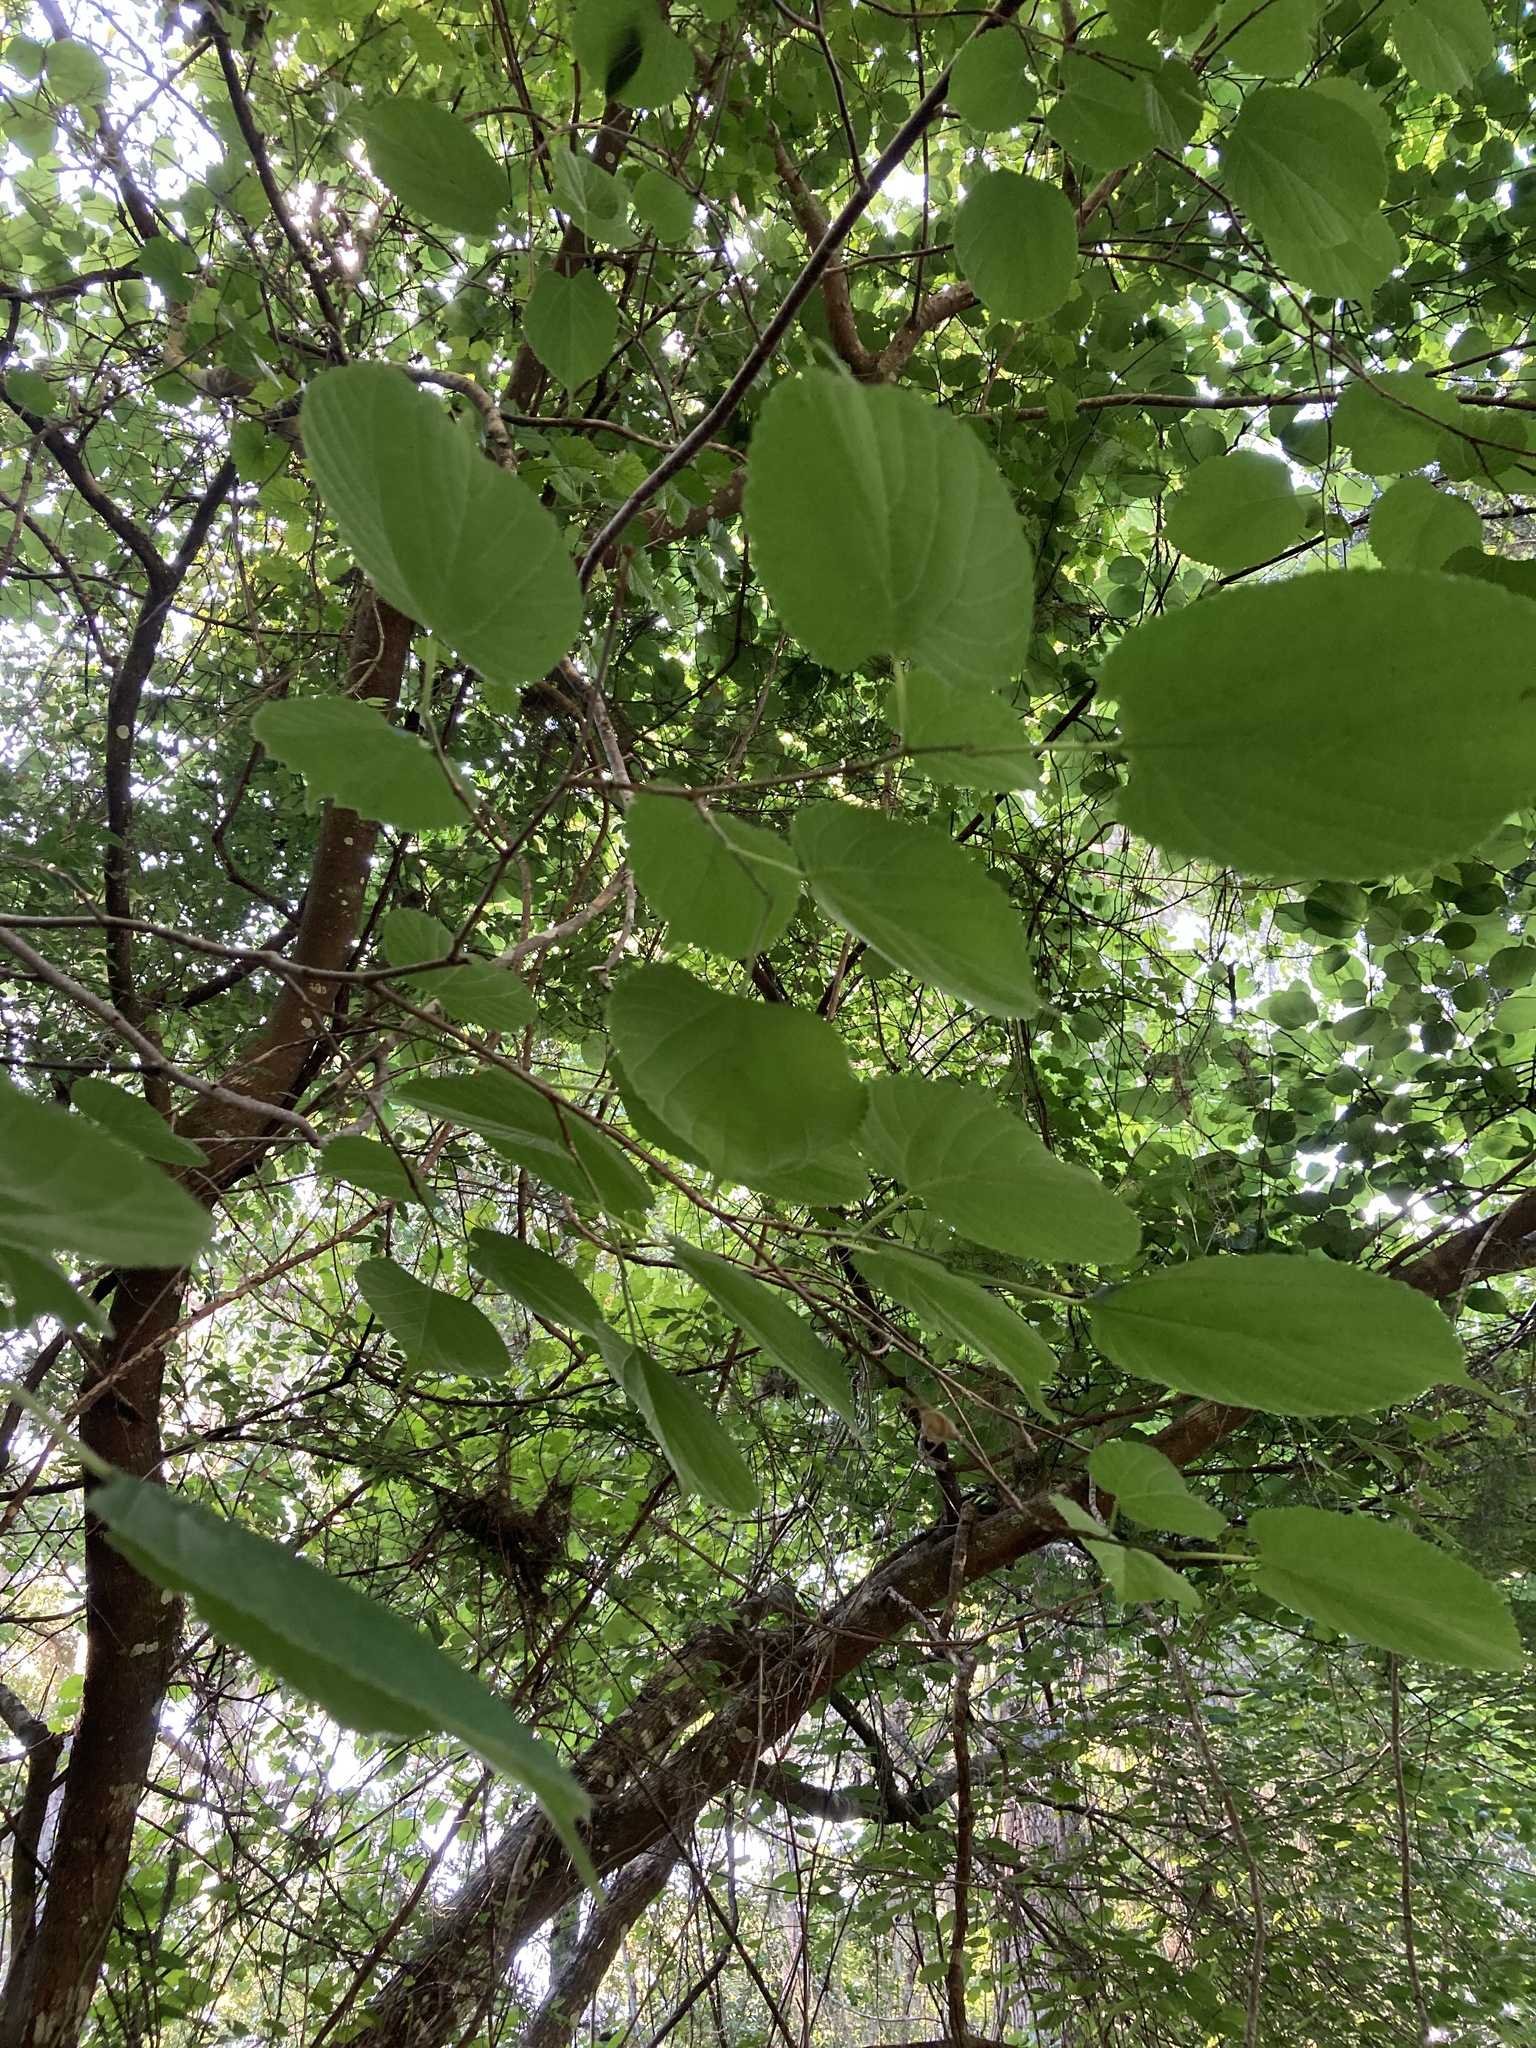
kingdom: Plantae
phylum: Tracheophyta
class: Magnoliopsida
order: Rosales
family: Moraceae
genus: Morus
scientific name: Morus rubra
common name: Red mulberry
